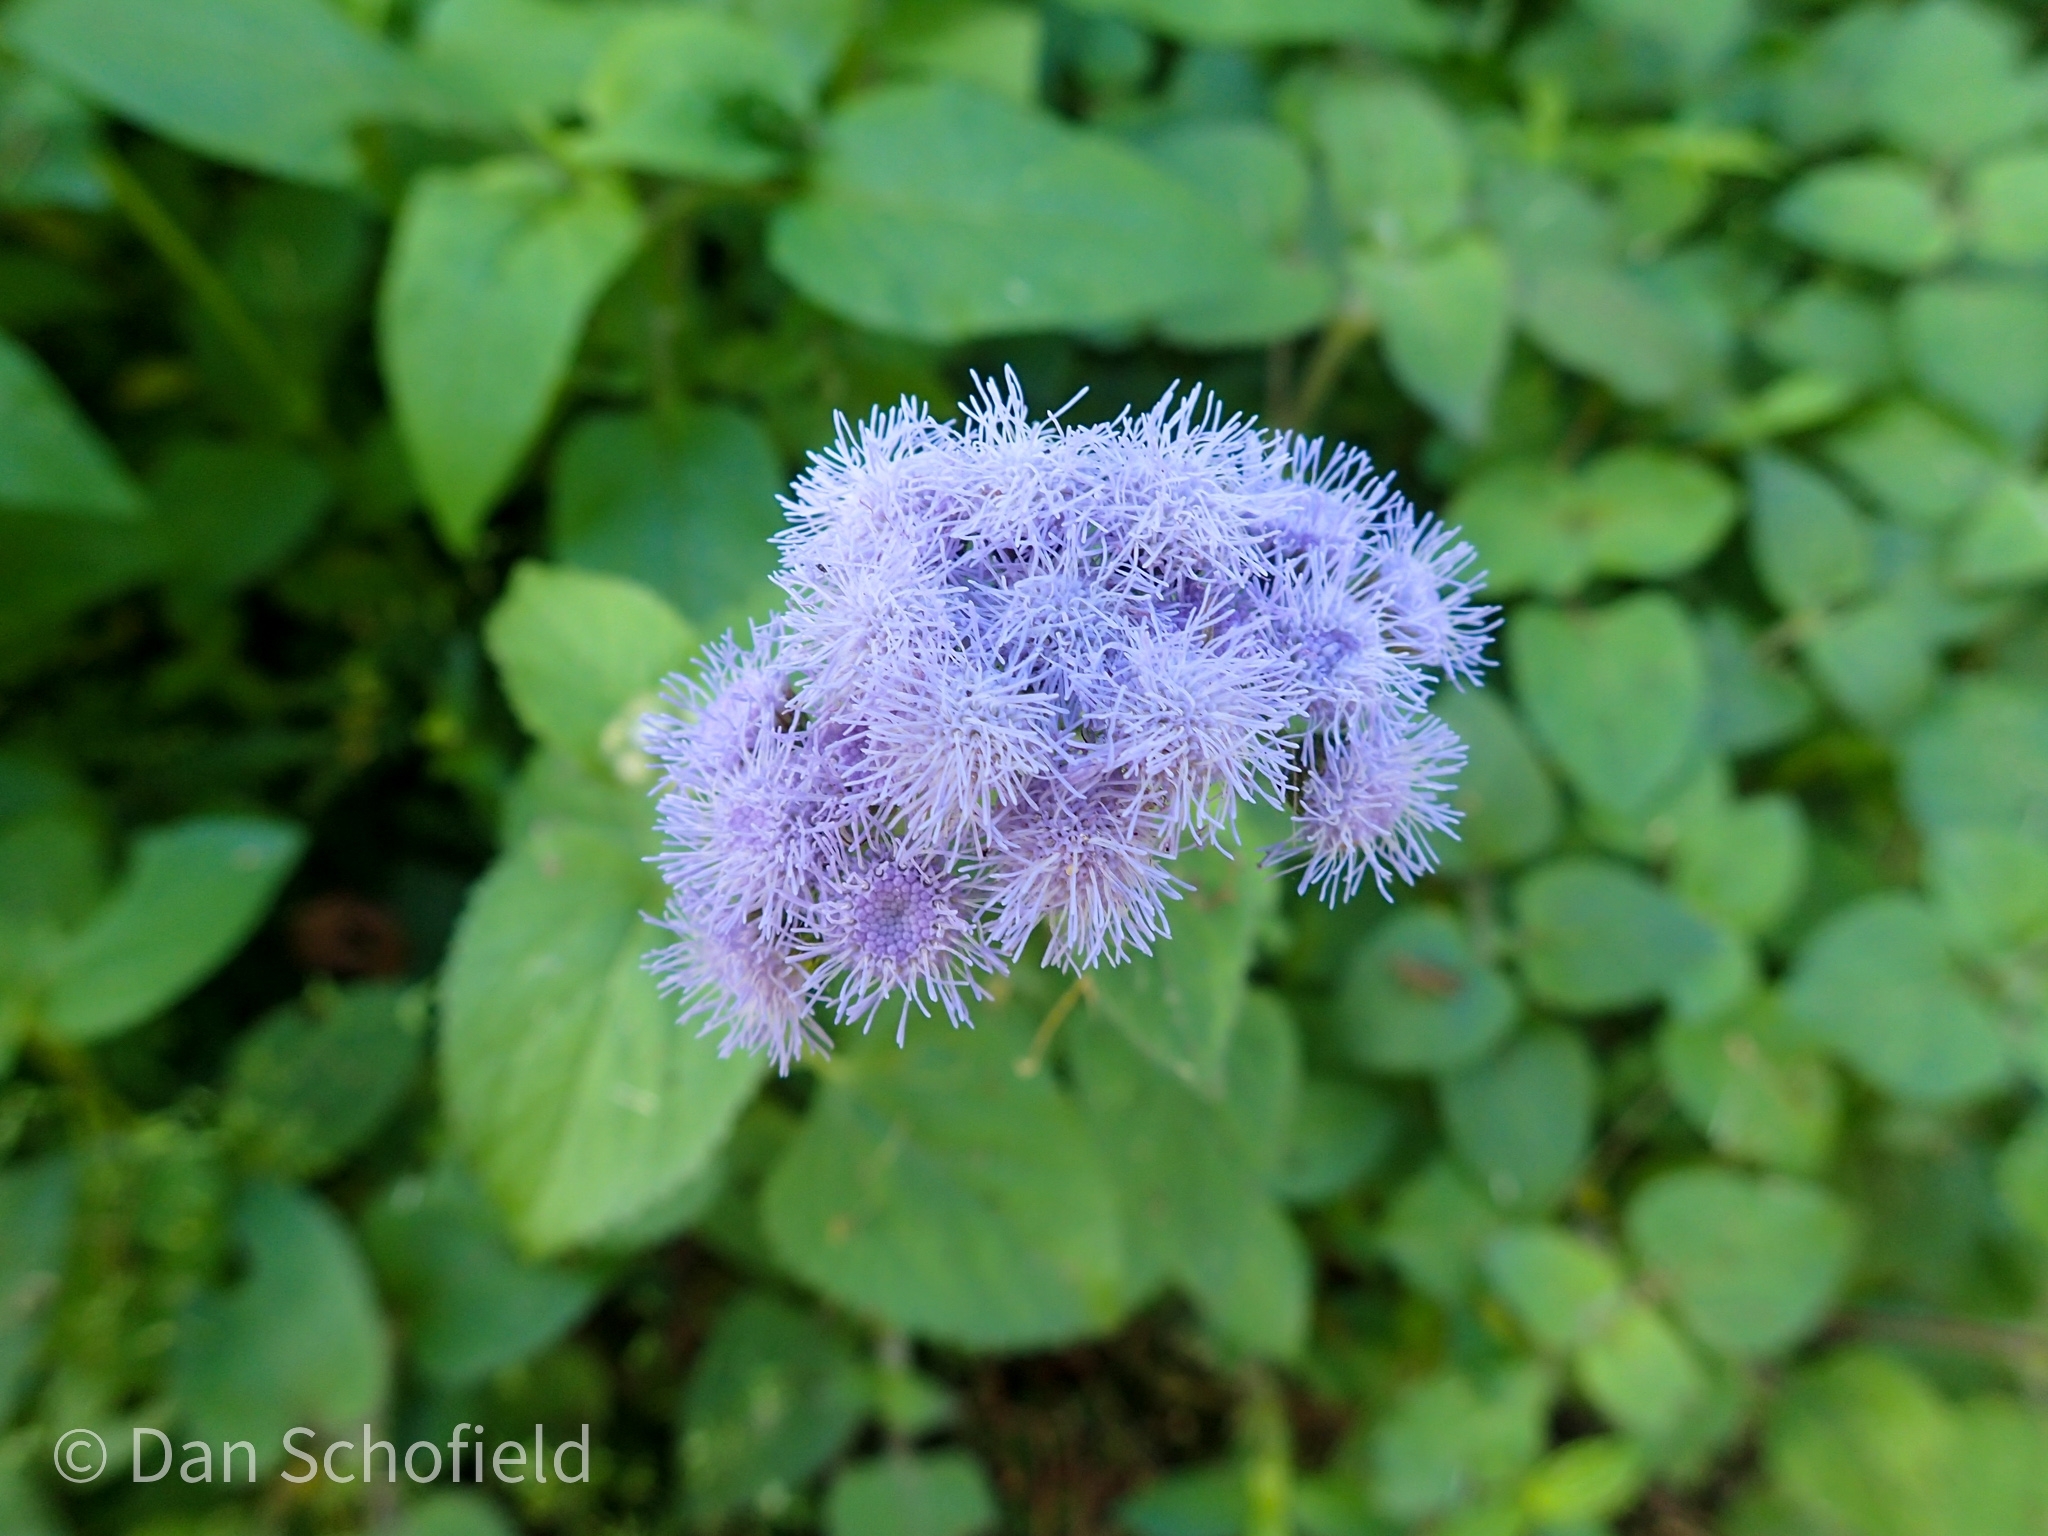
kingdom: Plantae
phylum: Tracheophyta
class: Magnoliopsida
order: Asterales
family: Asteraceae
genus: Ageratum
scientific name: Ageratum houstonianum
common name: Bluemink
